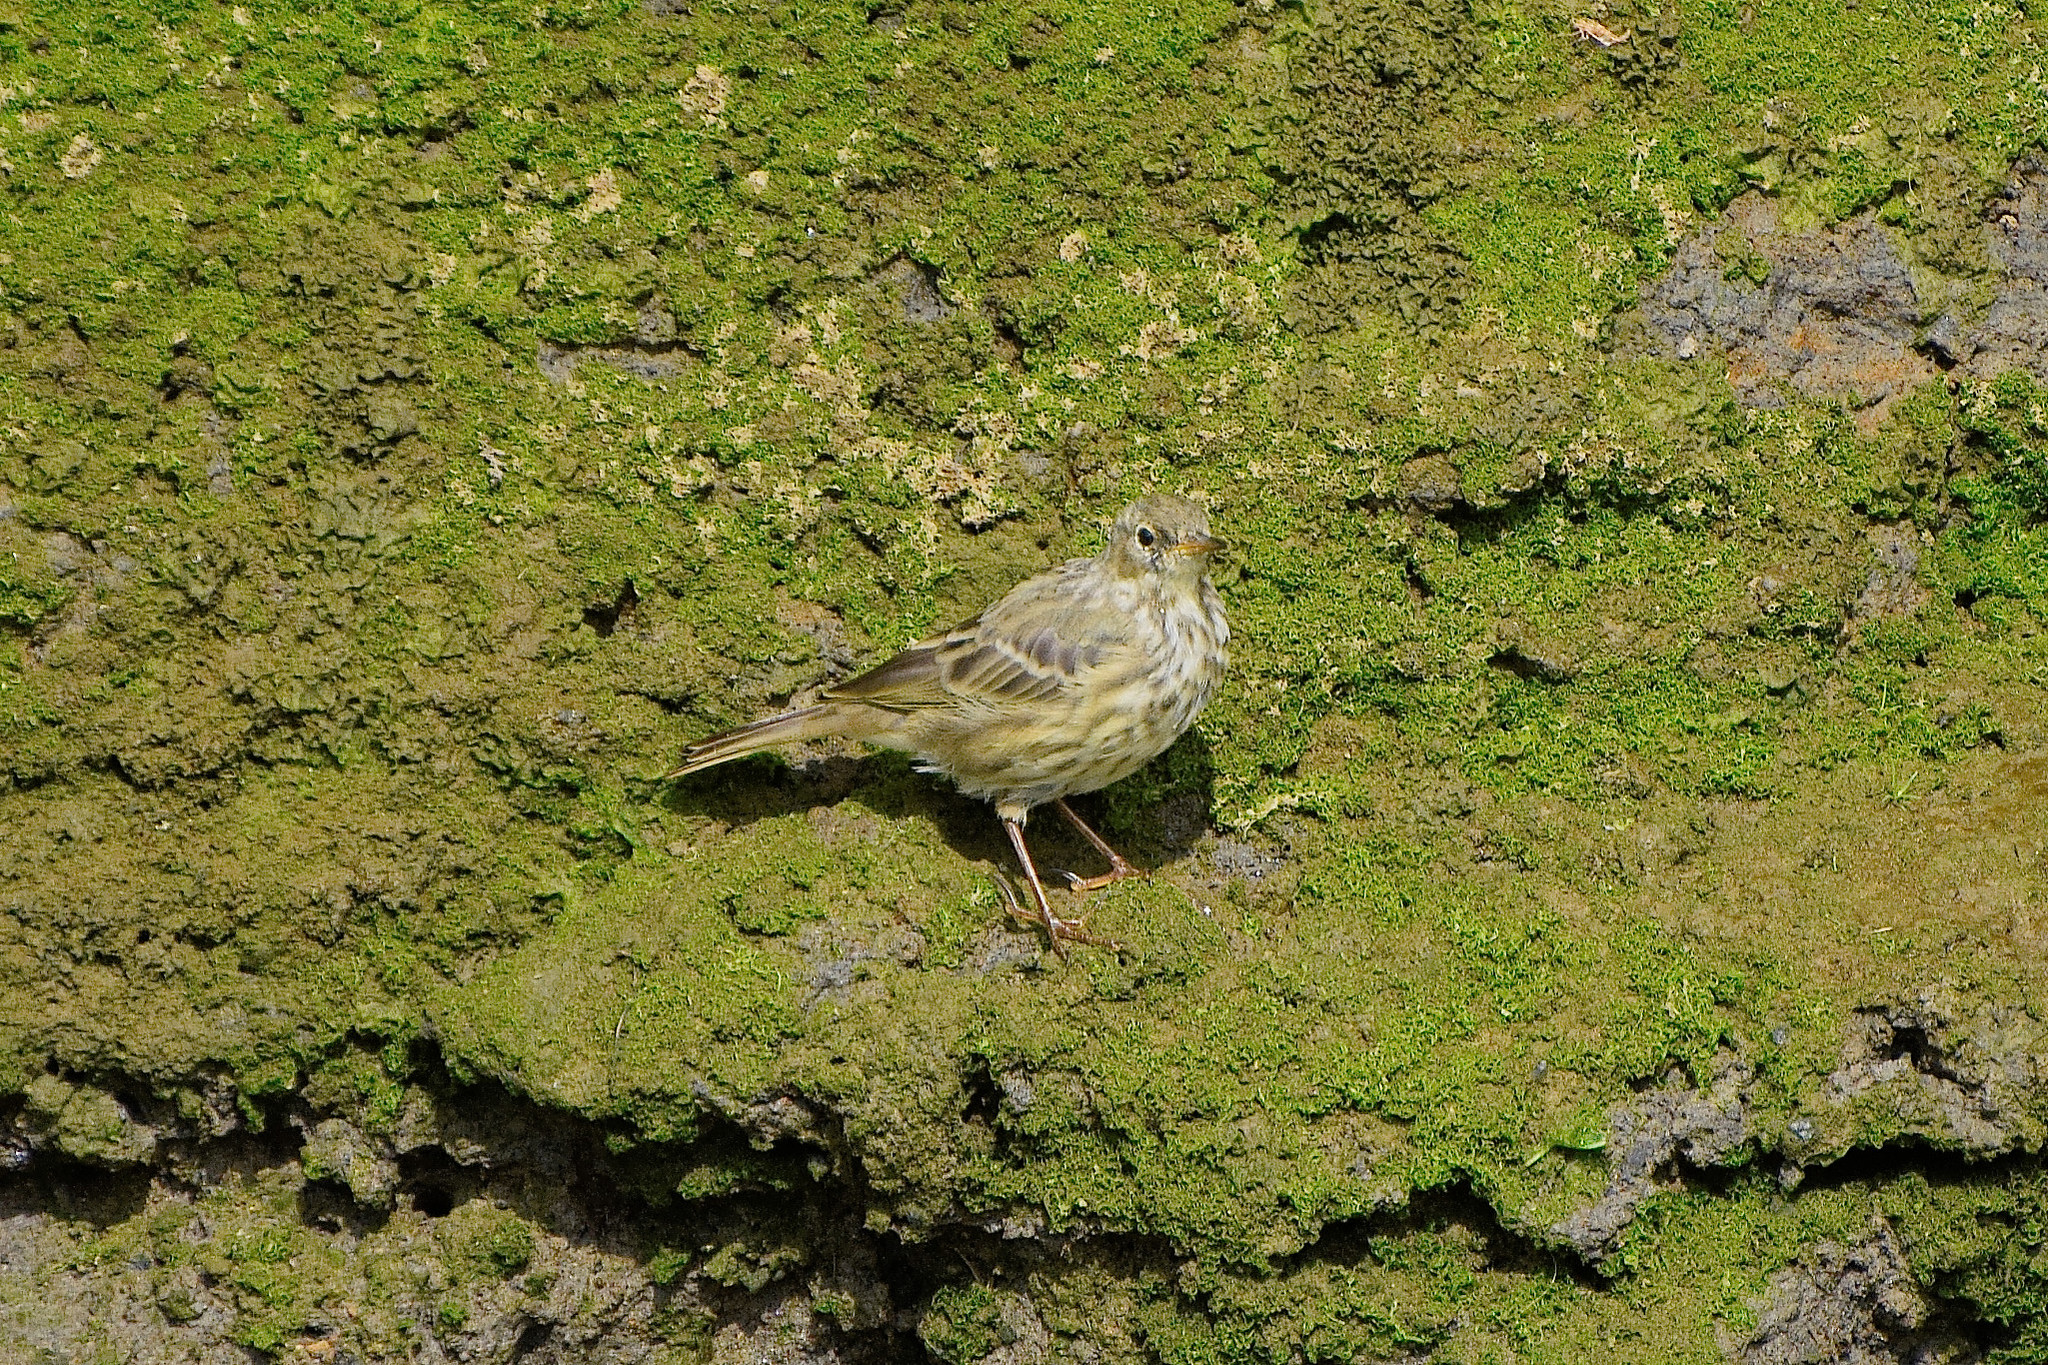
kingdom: Animalia
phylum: Chordata
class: Aves
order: Passeriformes
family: Motacillidae
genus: Anthus
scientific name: Anthus petrosus
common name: Eurasian rock pipit
